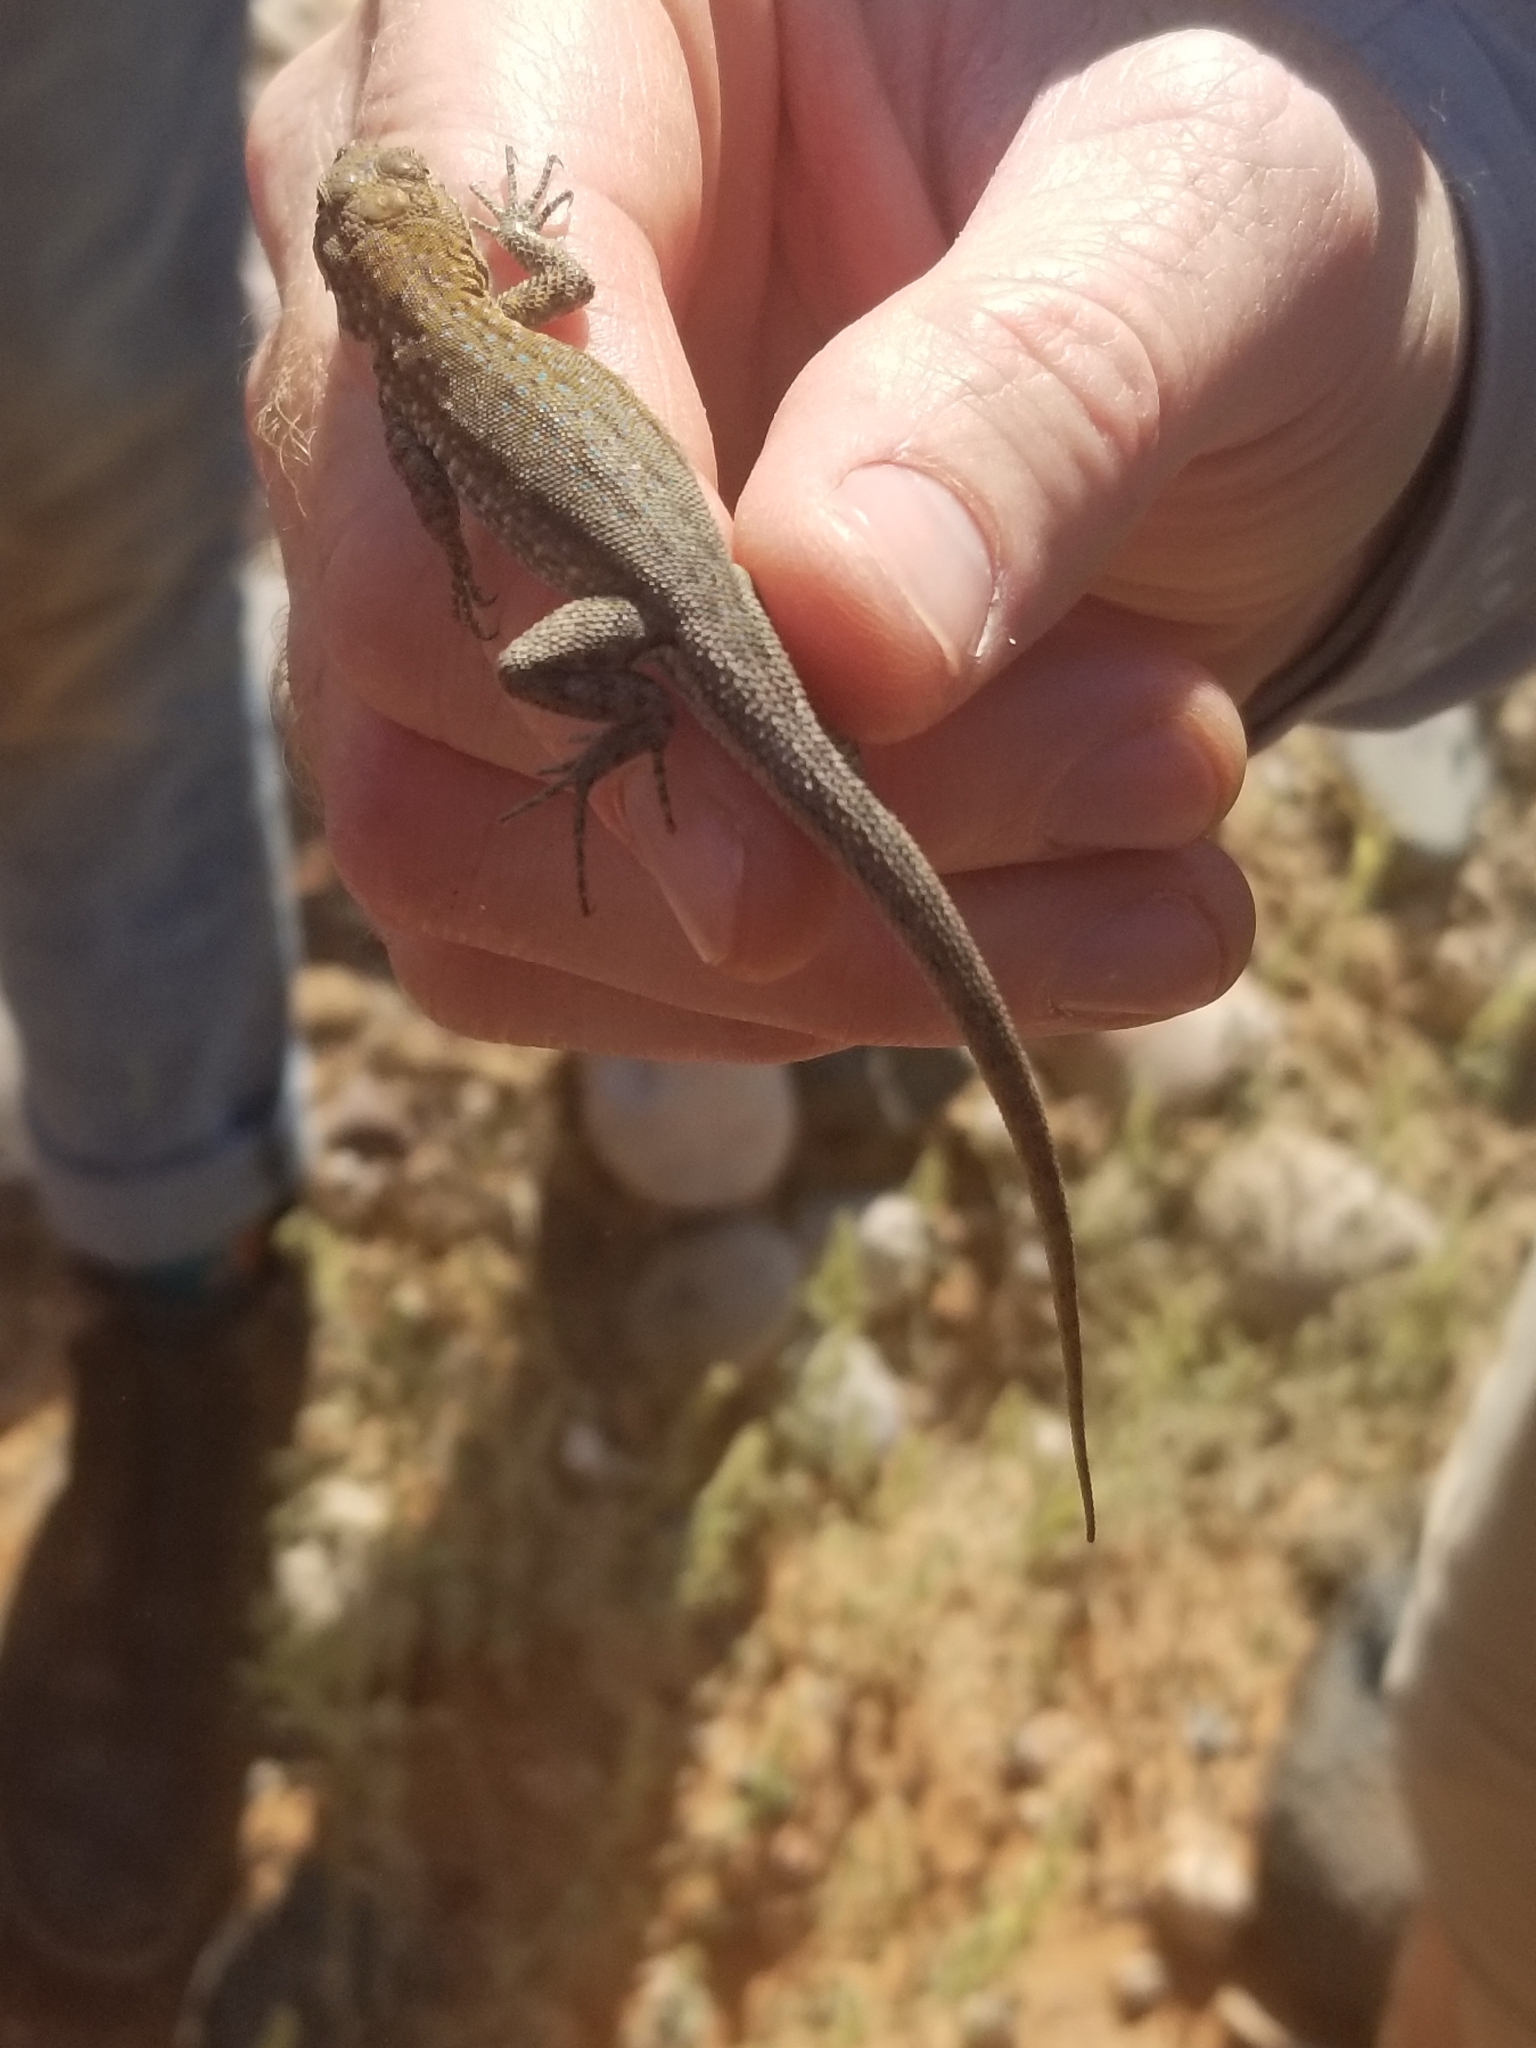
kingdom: Animalia
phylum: Chordata
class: Squamata
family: Phrynosomatidae
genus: Uta
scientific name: Uta stansburiana
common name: Side-blotched lizard
